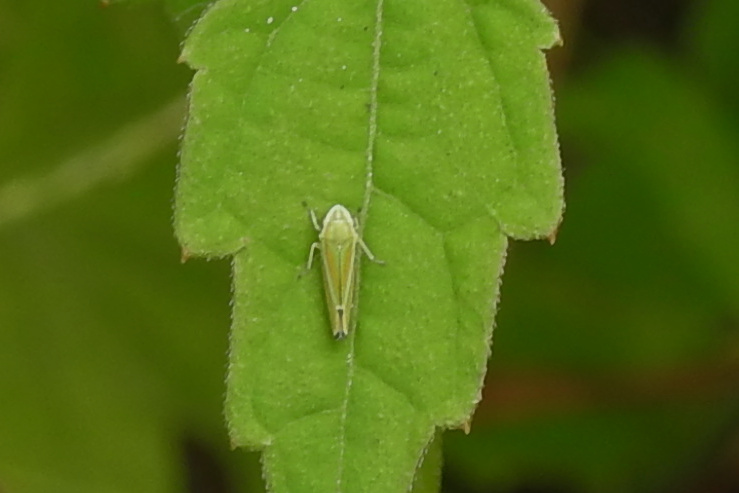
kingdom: Animalia
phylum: Arthropoda
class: Insecta
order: Hemiptera
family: Cicadellidae
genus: Graphocephala
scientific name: Graphocephala versuta
